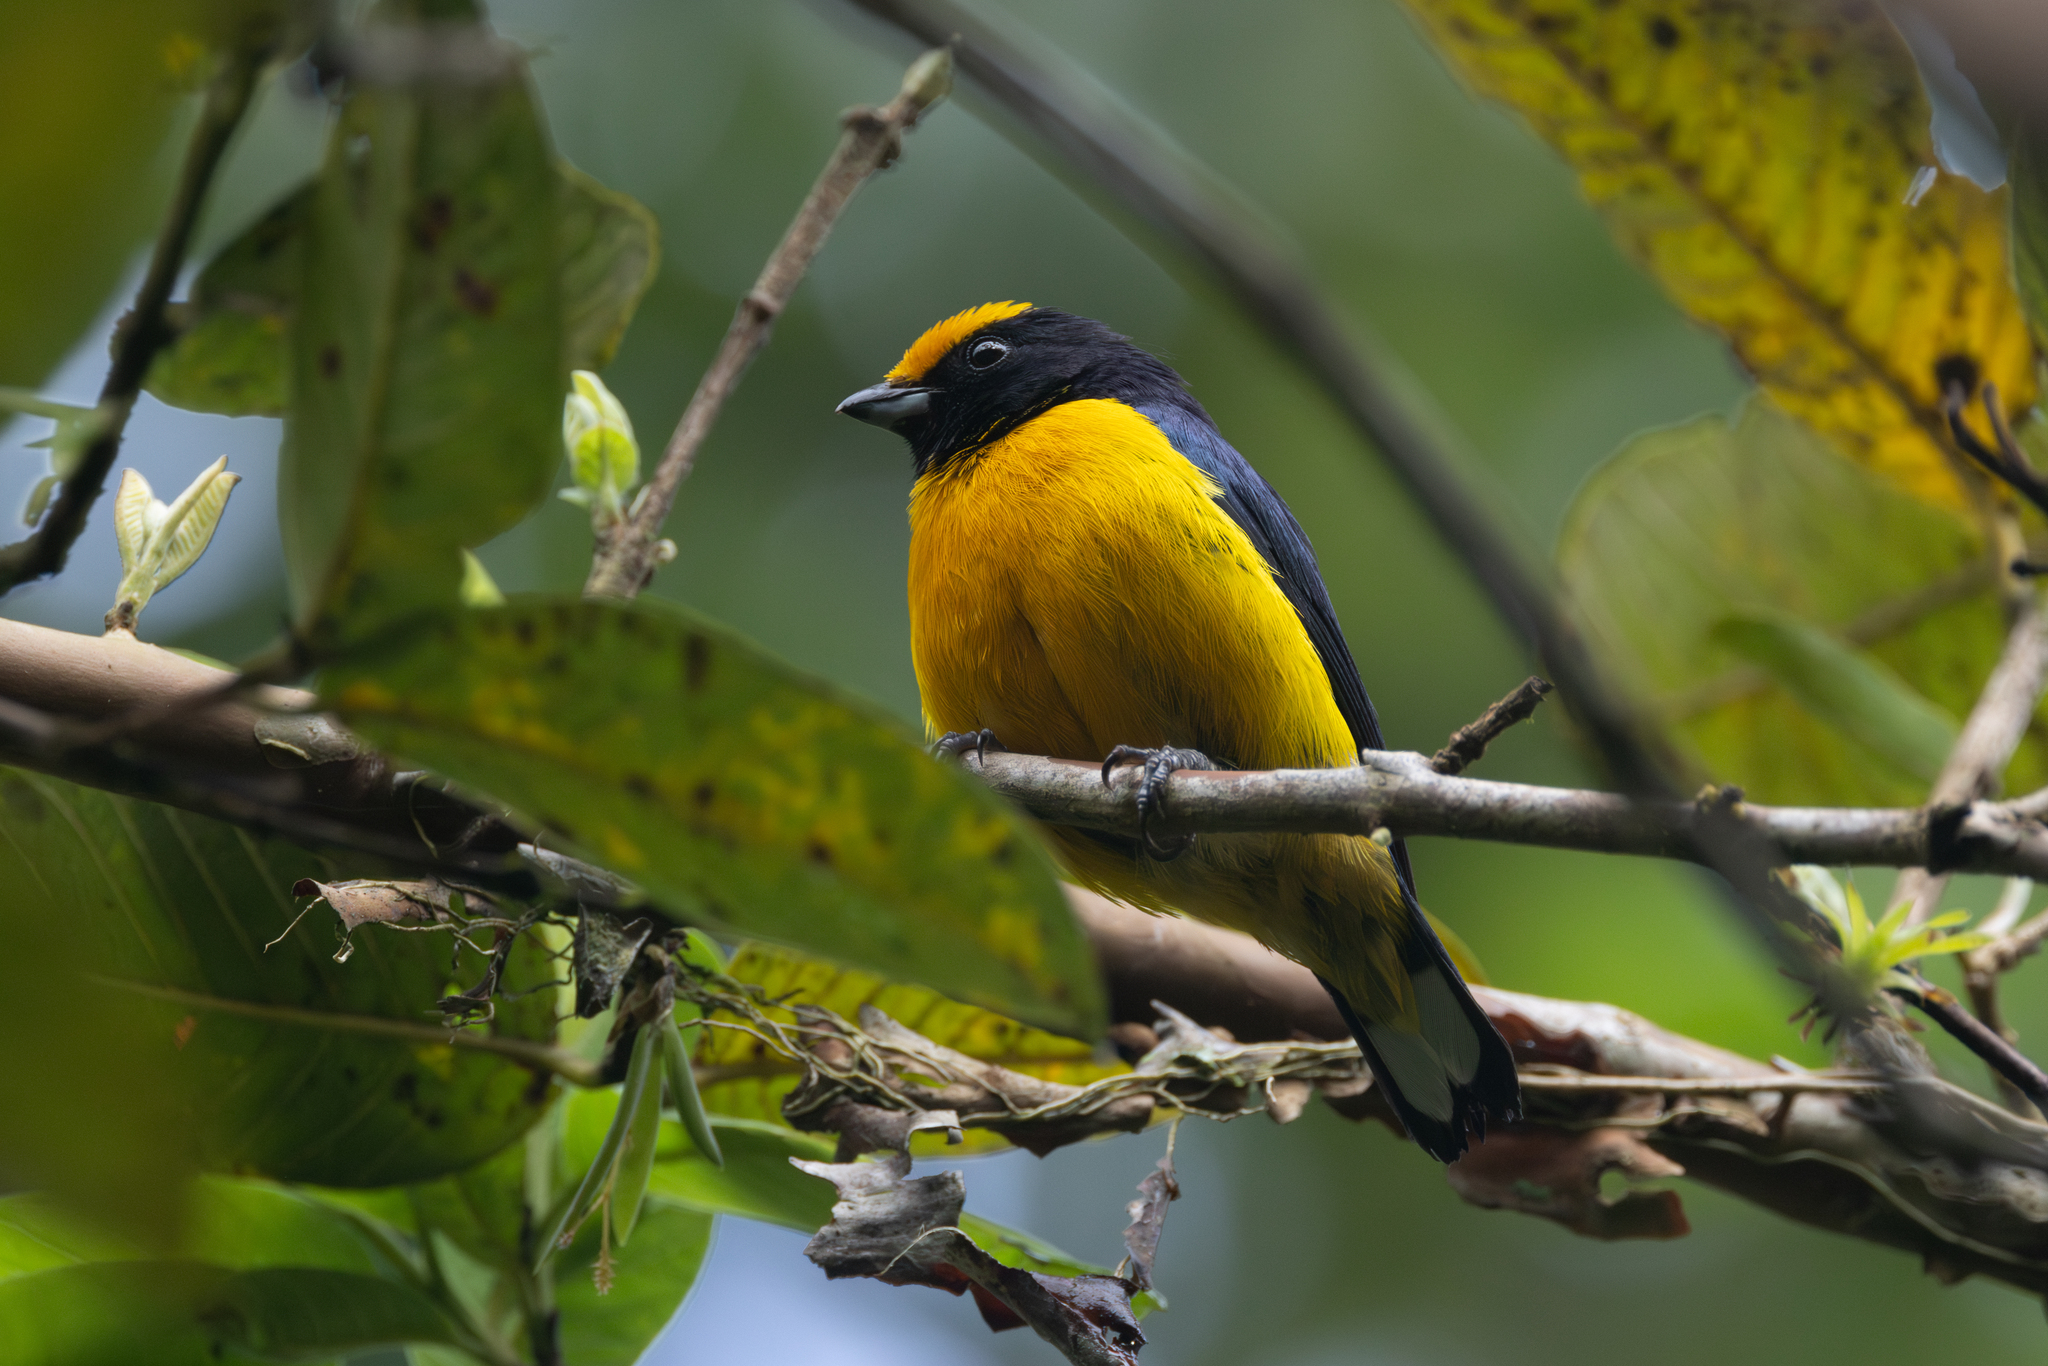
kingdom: Animalia
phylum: Chordata
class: Aves
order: Passeriformes
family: Fringillidae
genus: Euphonia
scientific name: Euphonia xanthogaster
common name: Orange-bellied euphonia
